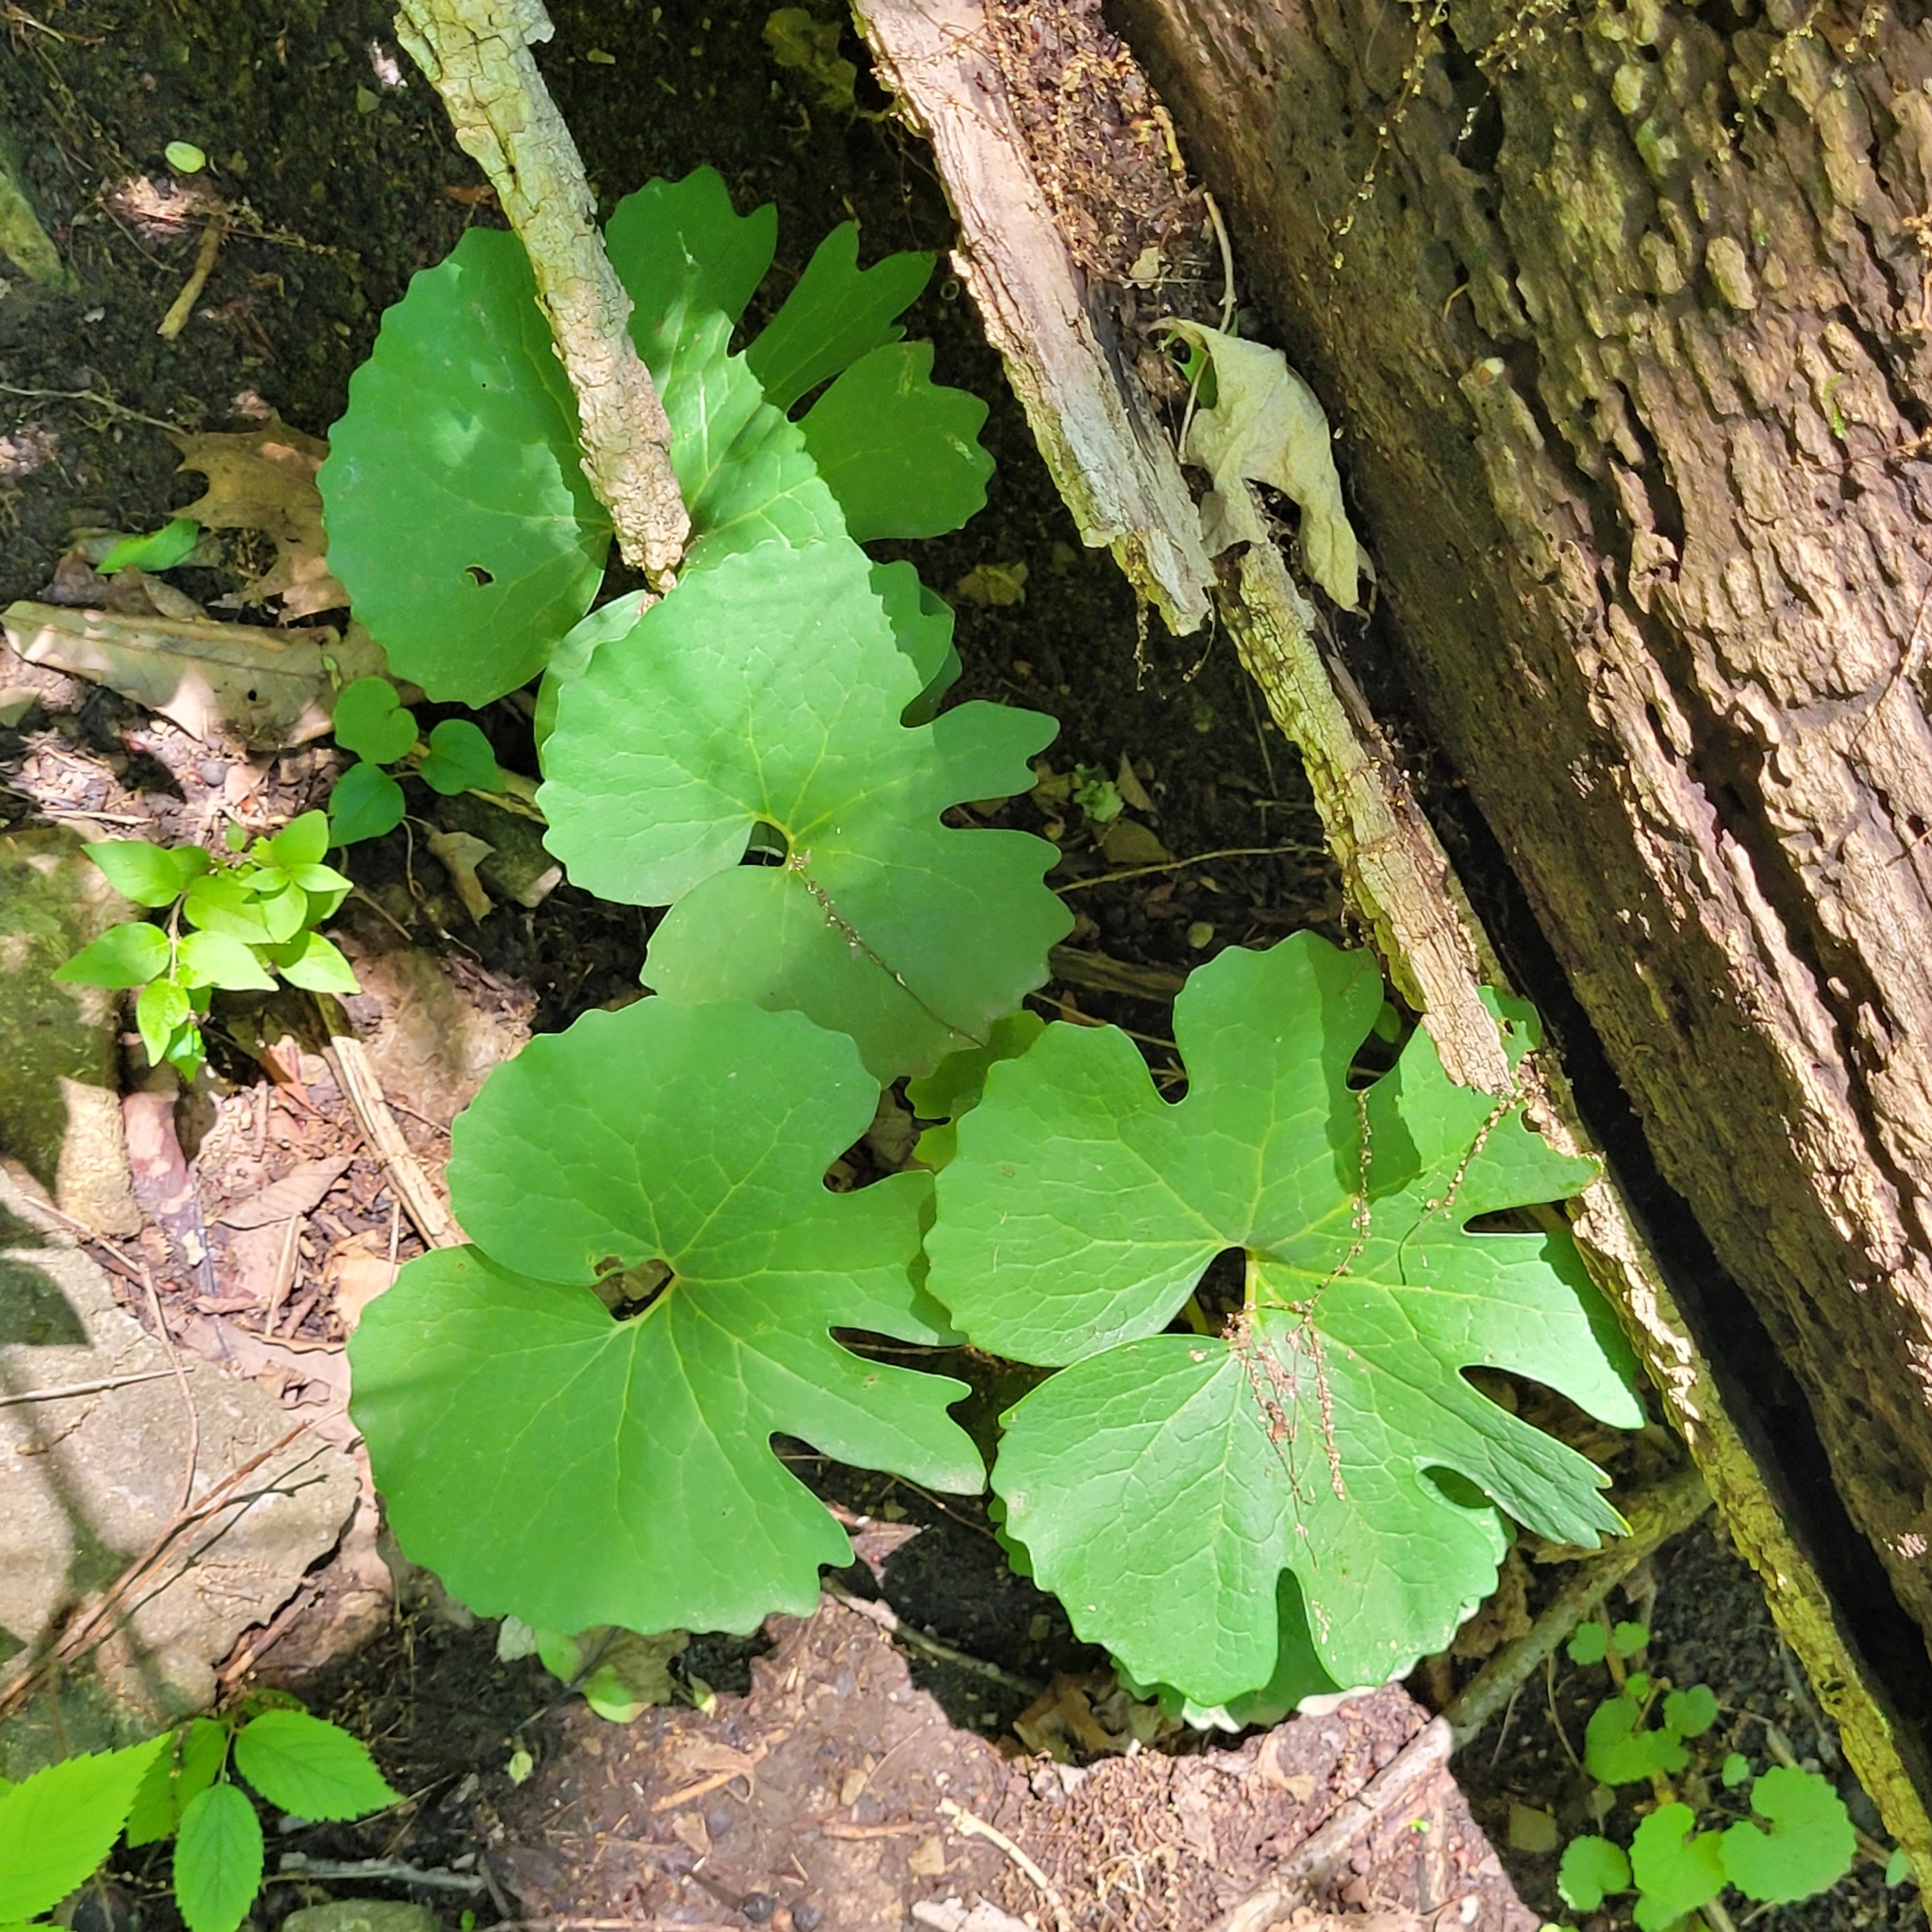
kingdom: Plantae
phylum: Tracheophyta
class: Magnoliopsida
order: Ranunculales
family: Papaveraceae
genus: Sanguinaria
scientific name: Sanguinaria canadensis
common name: Bloodroot
